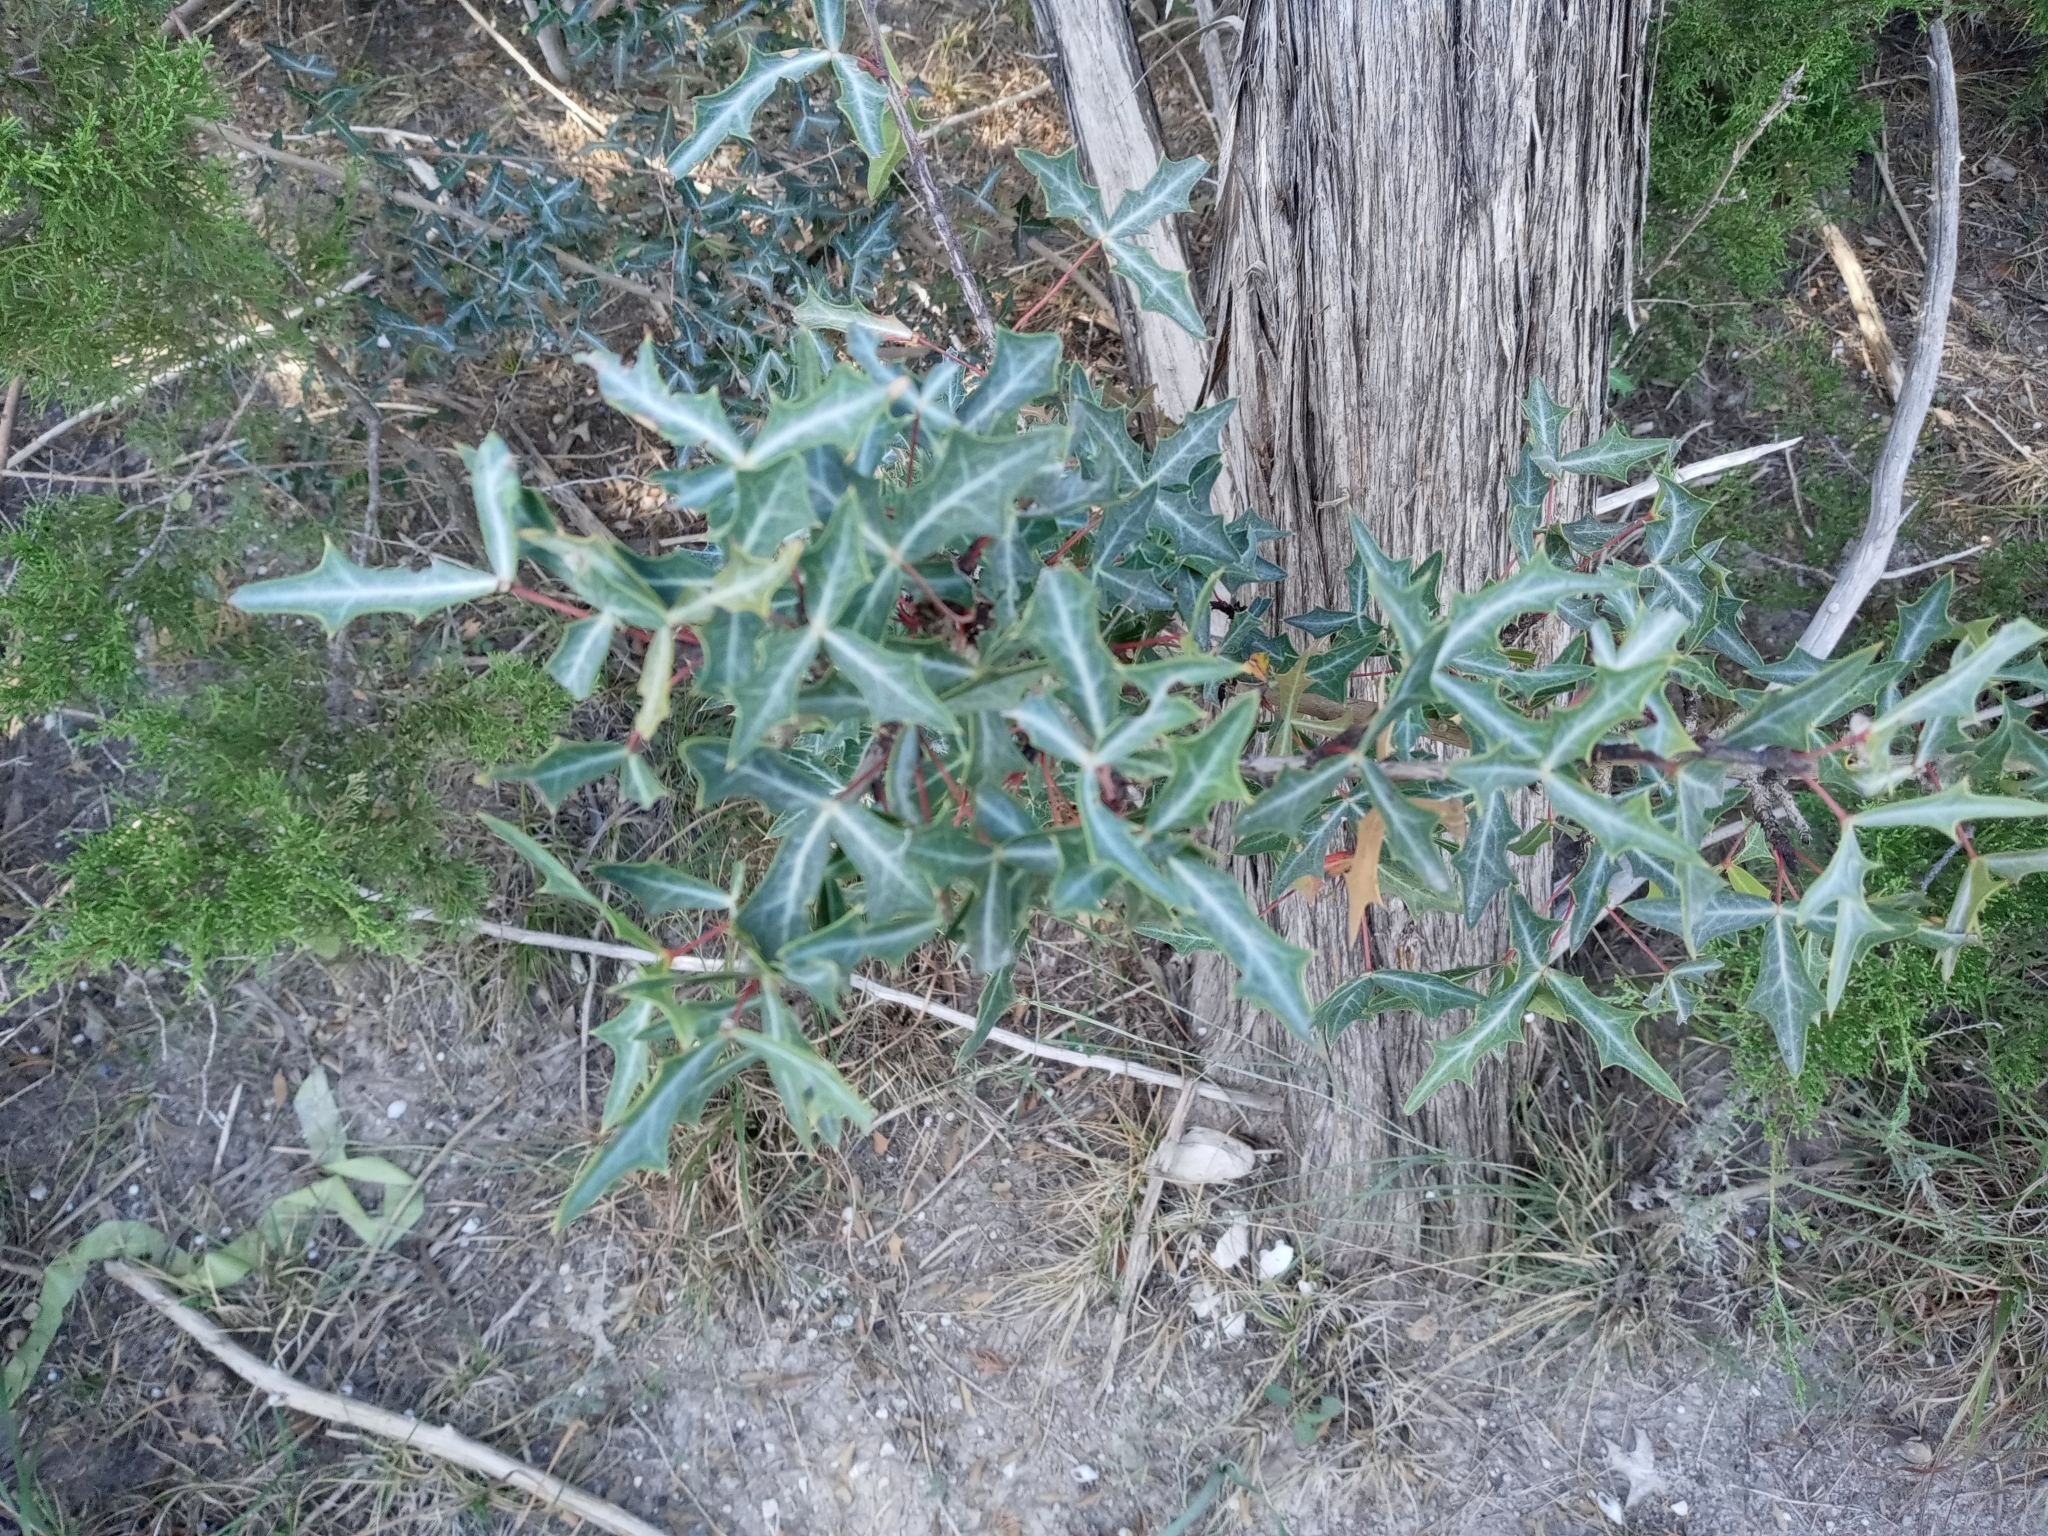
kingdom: Plantae
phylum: Tracheophyta
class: Magnoliopsida
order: Ranunculales
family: Berberidaceae
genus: Alloberberis
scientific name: Alloberberis trifoliolata
